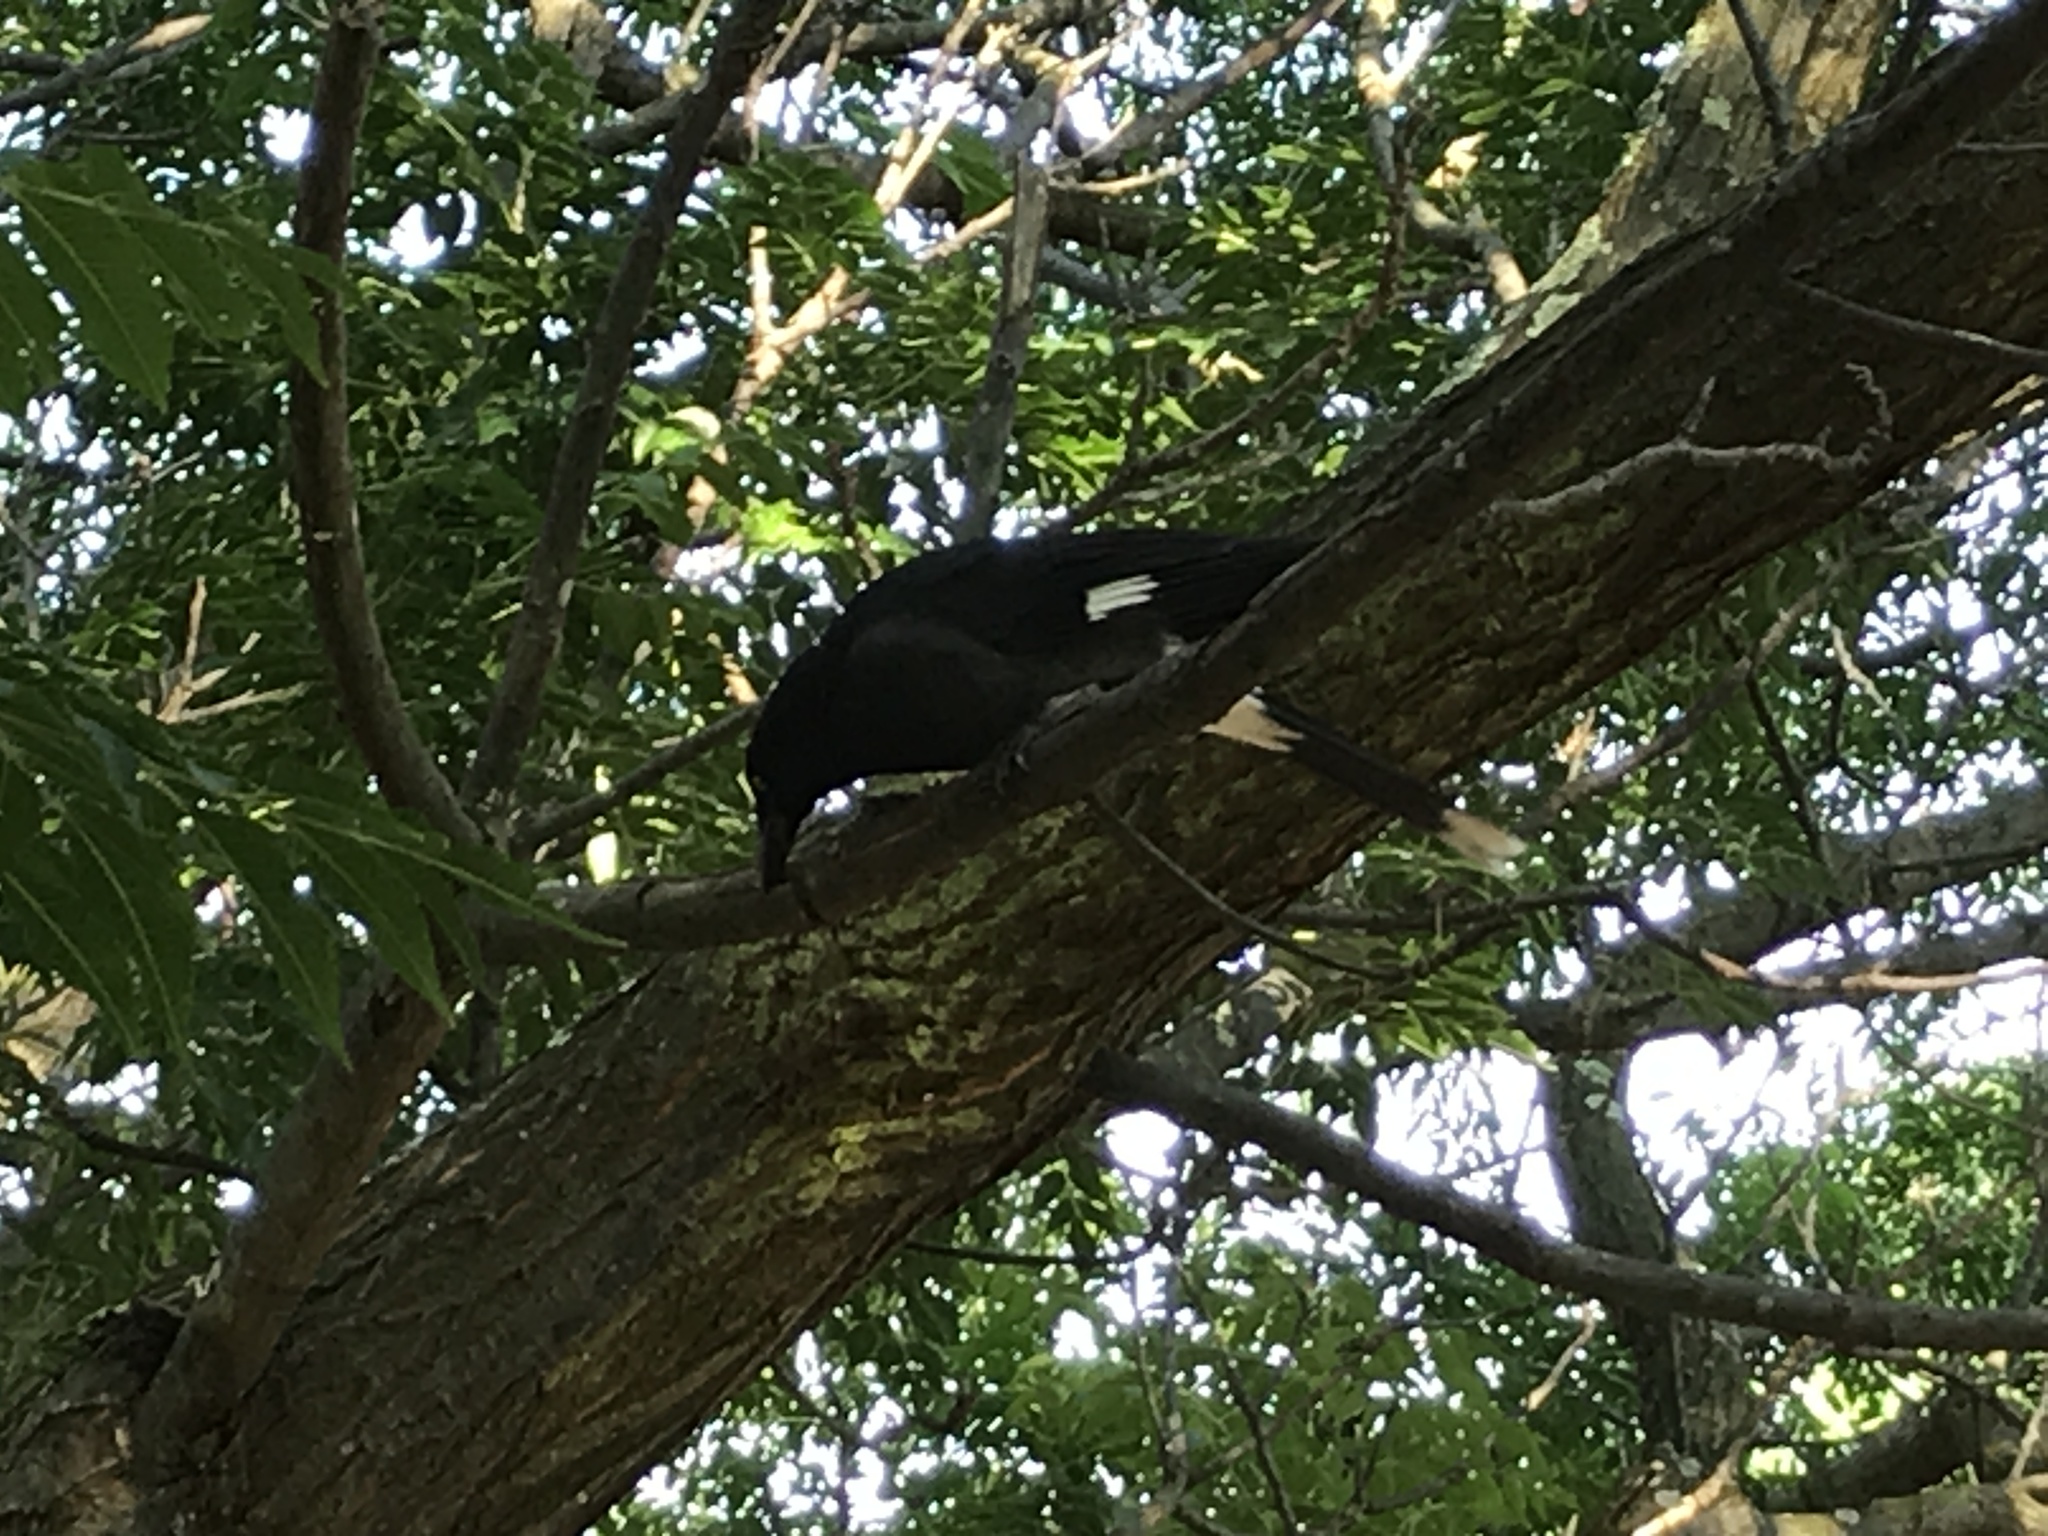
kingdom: Animalia
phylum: Chordata
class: Aves
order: Passeriformes
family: Cracticidae
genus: Strepera
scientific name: Strepera graculina
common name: Pied currawong
